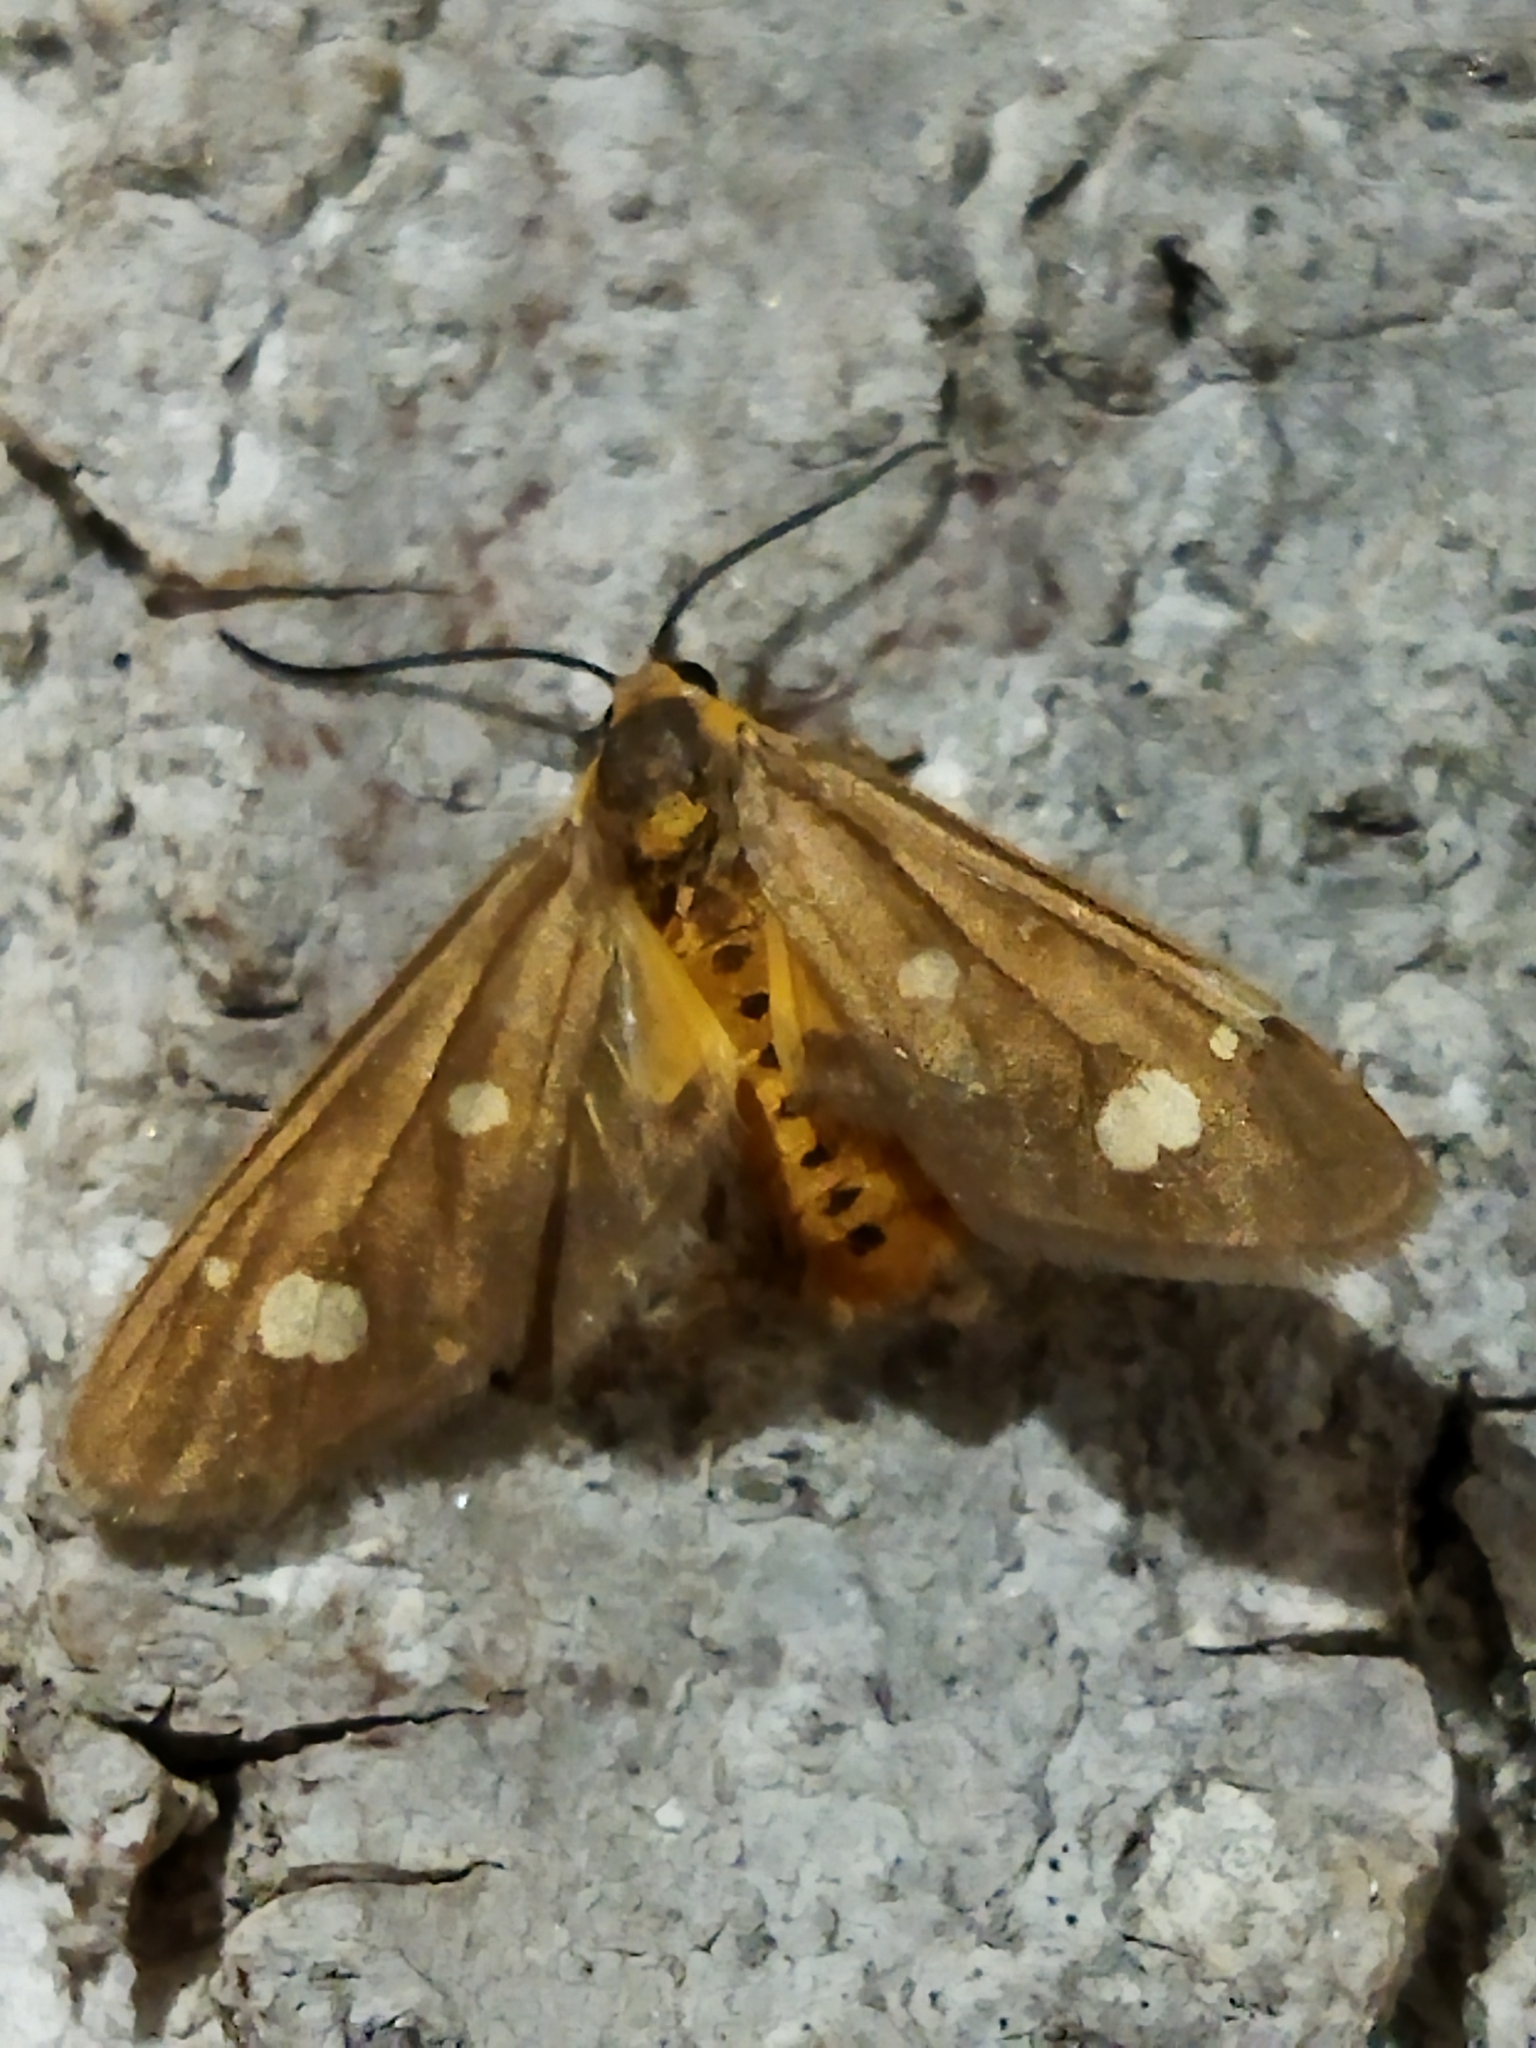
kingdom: Animalia
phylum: Arthropoda
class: Insecta
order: Lepidoptera
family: Erebidae
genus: Dysauxes
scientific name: Dysauxes punctata
